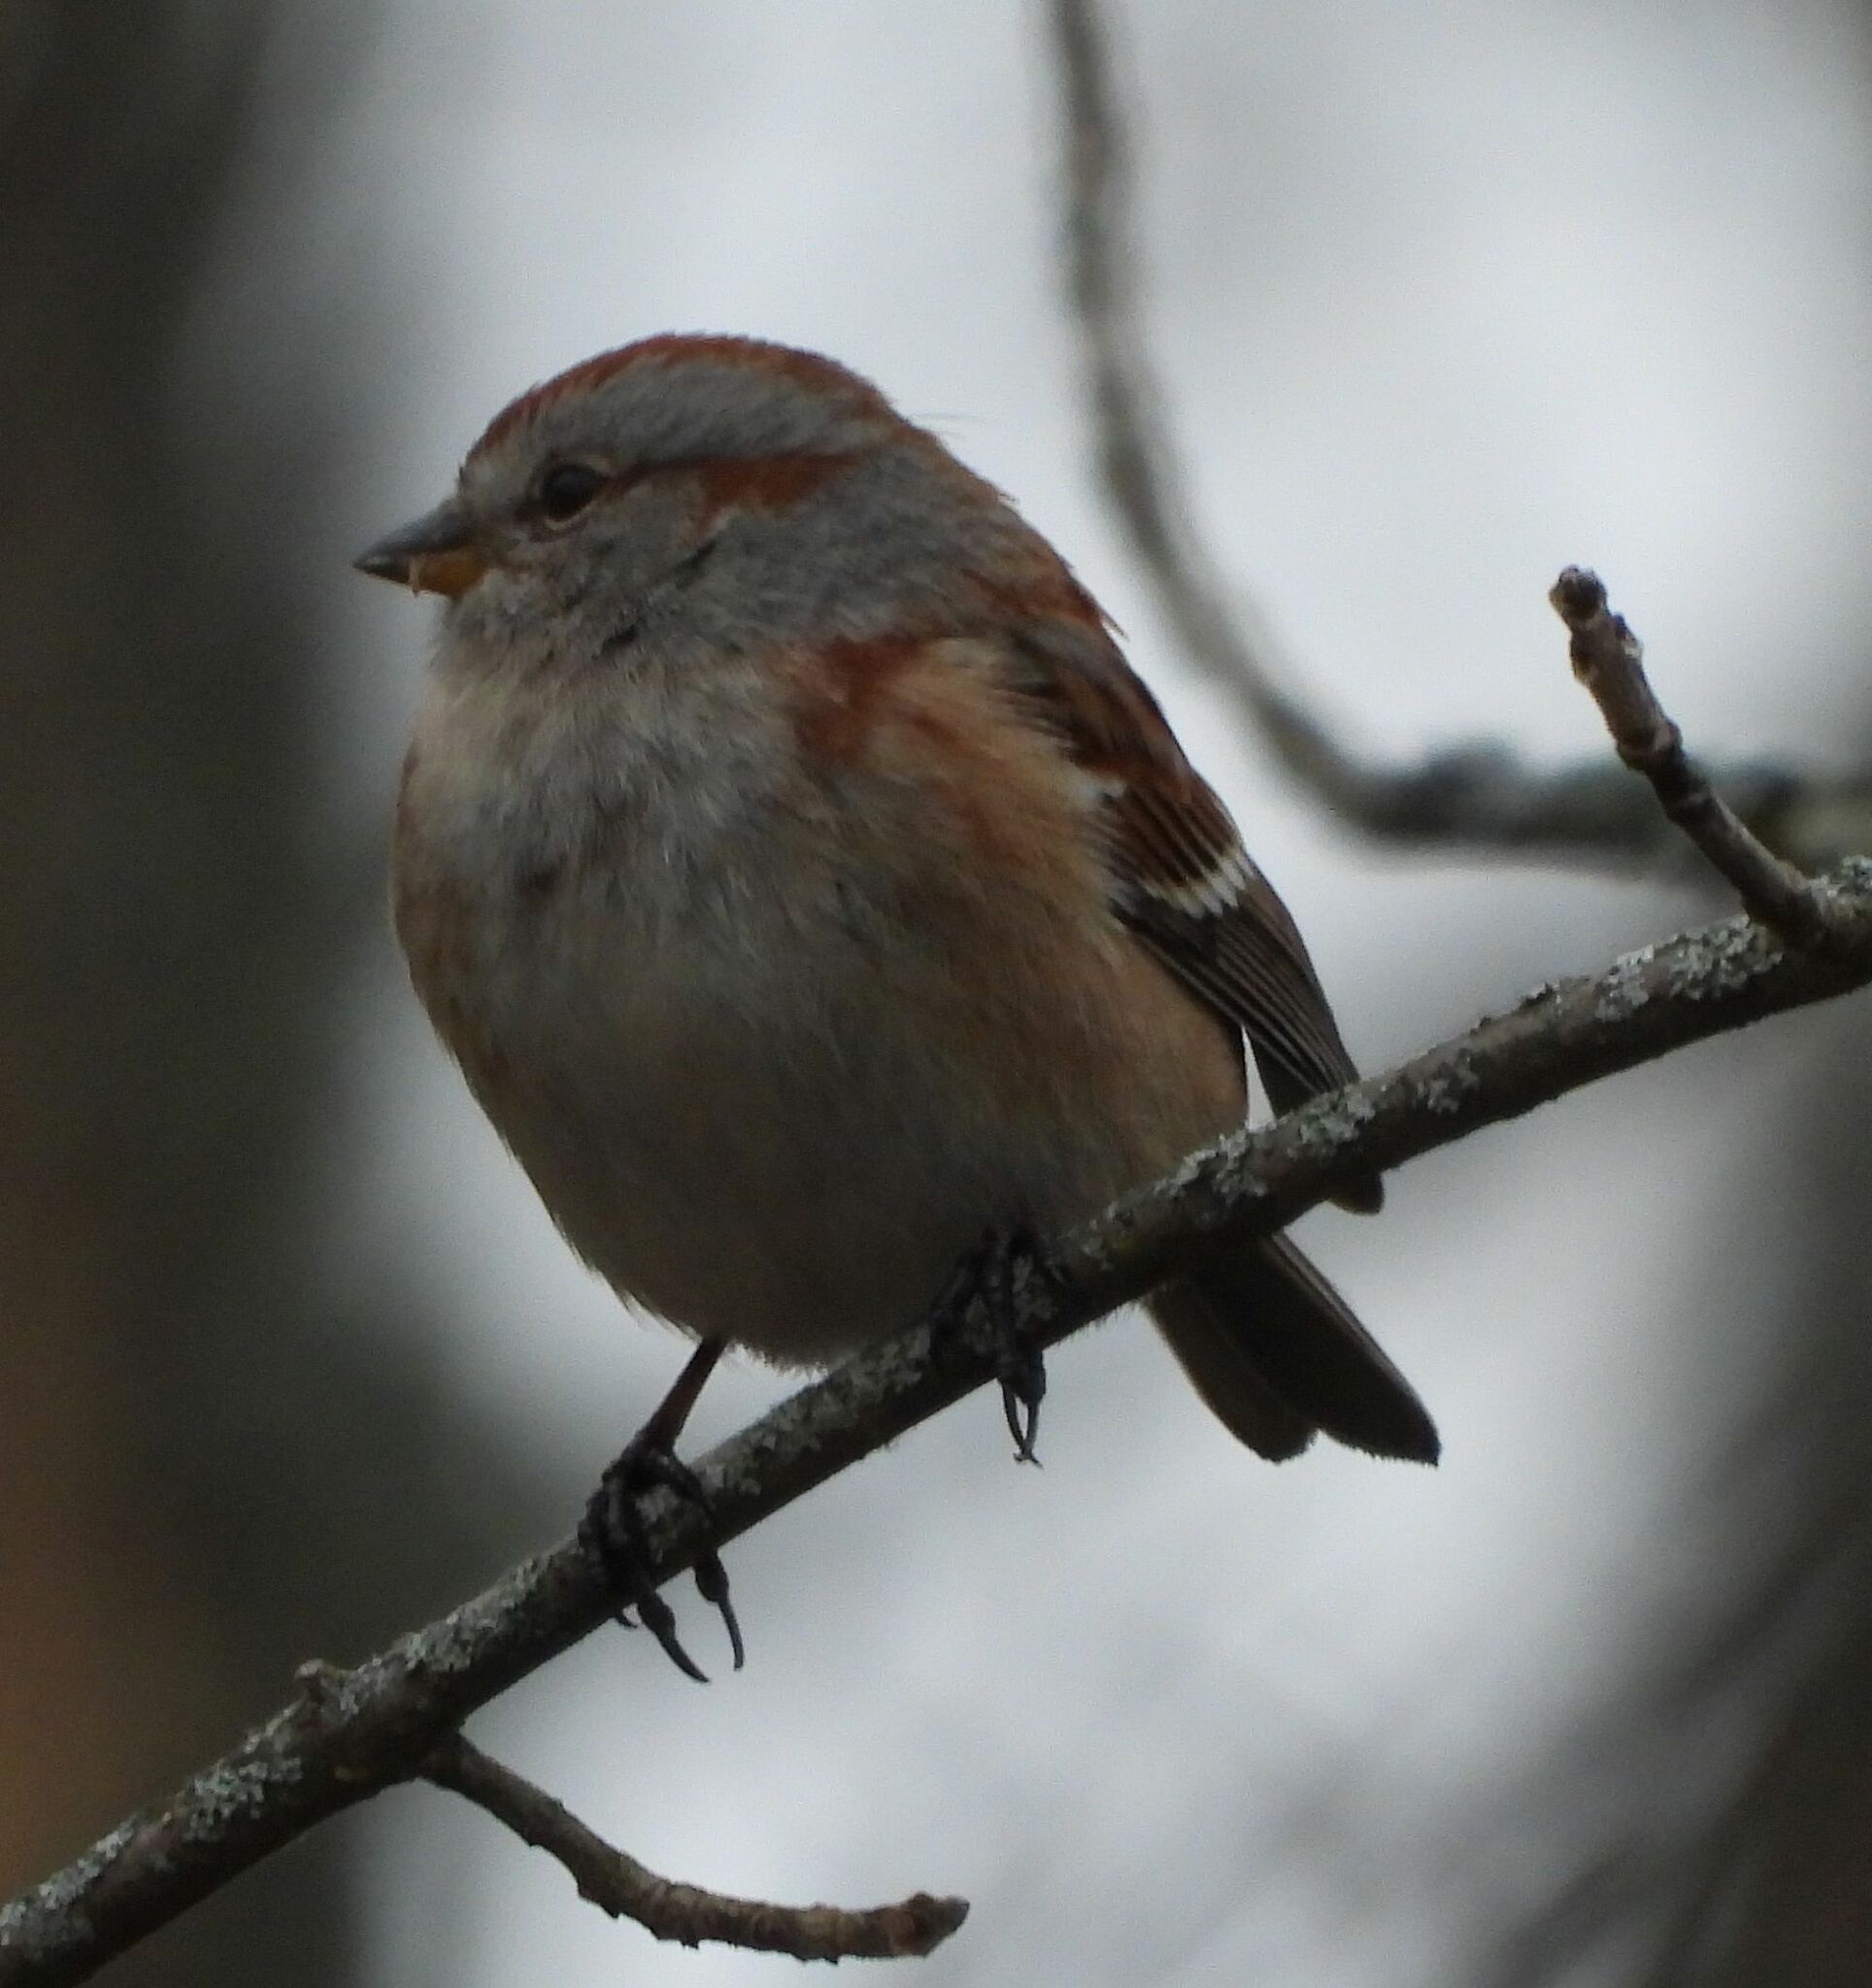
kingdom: Animalia
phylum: Chordata
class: Aves
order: Passeriformes
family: Passerellidae
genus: Spizelloides
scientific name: Spizelloides arborea
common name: American tree sparrow
